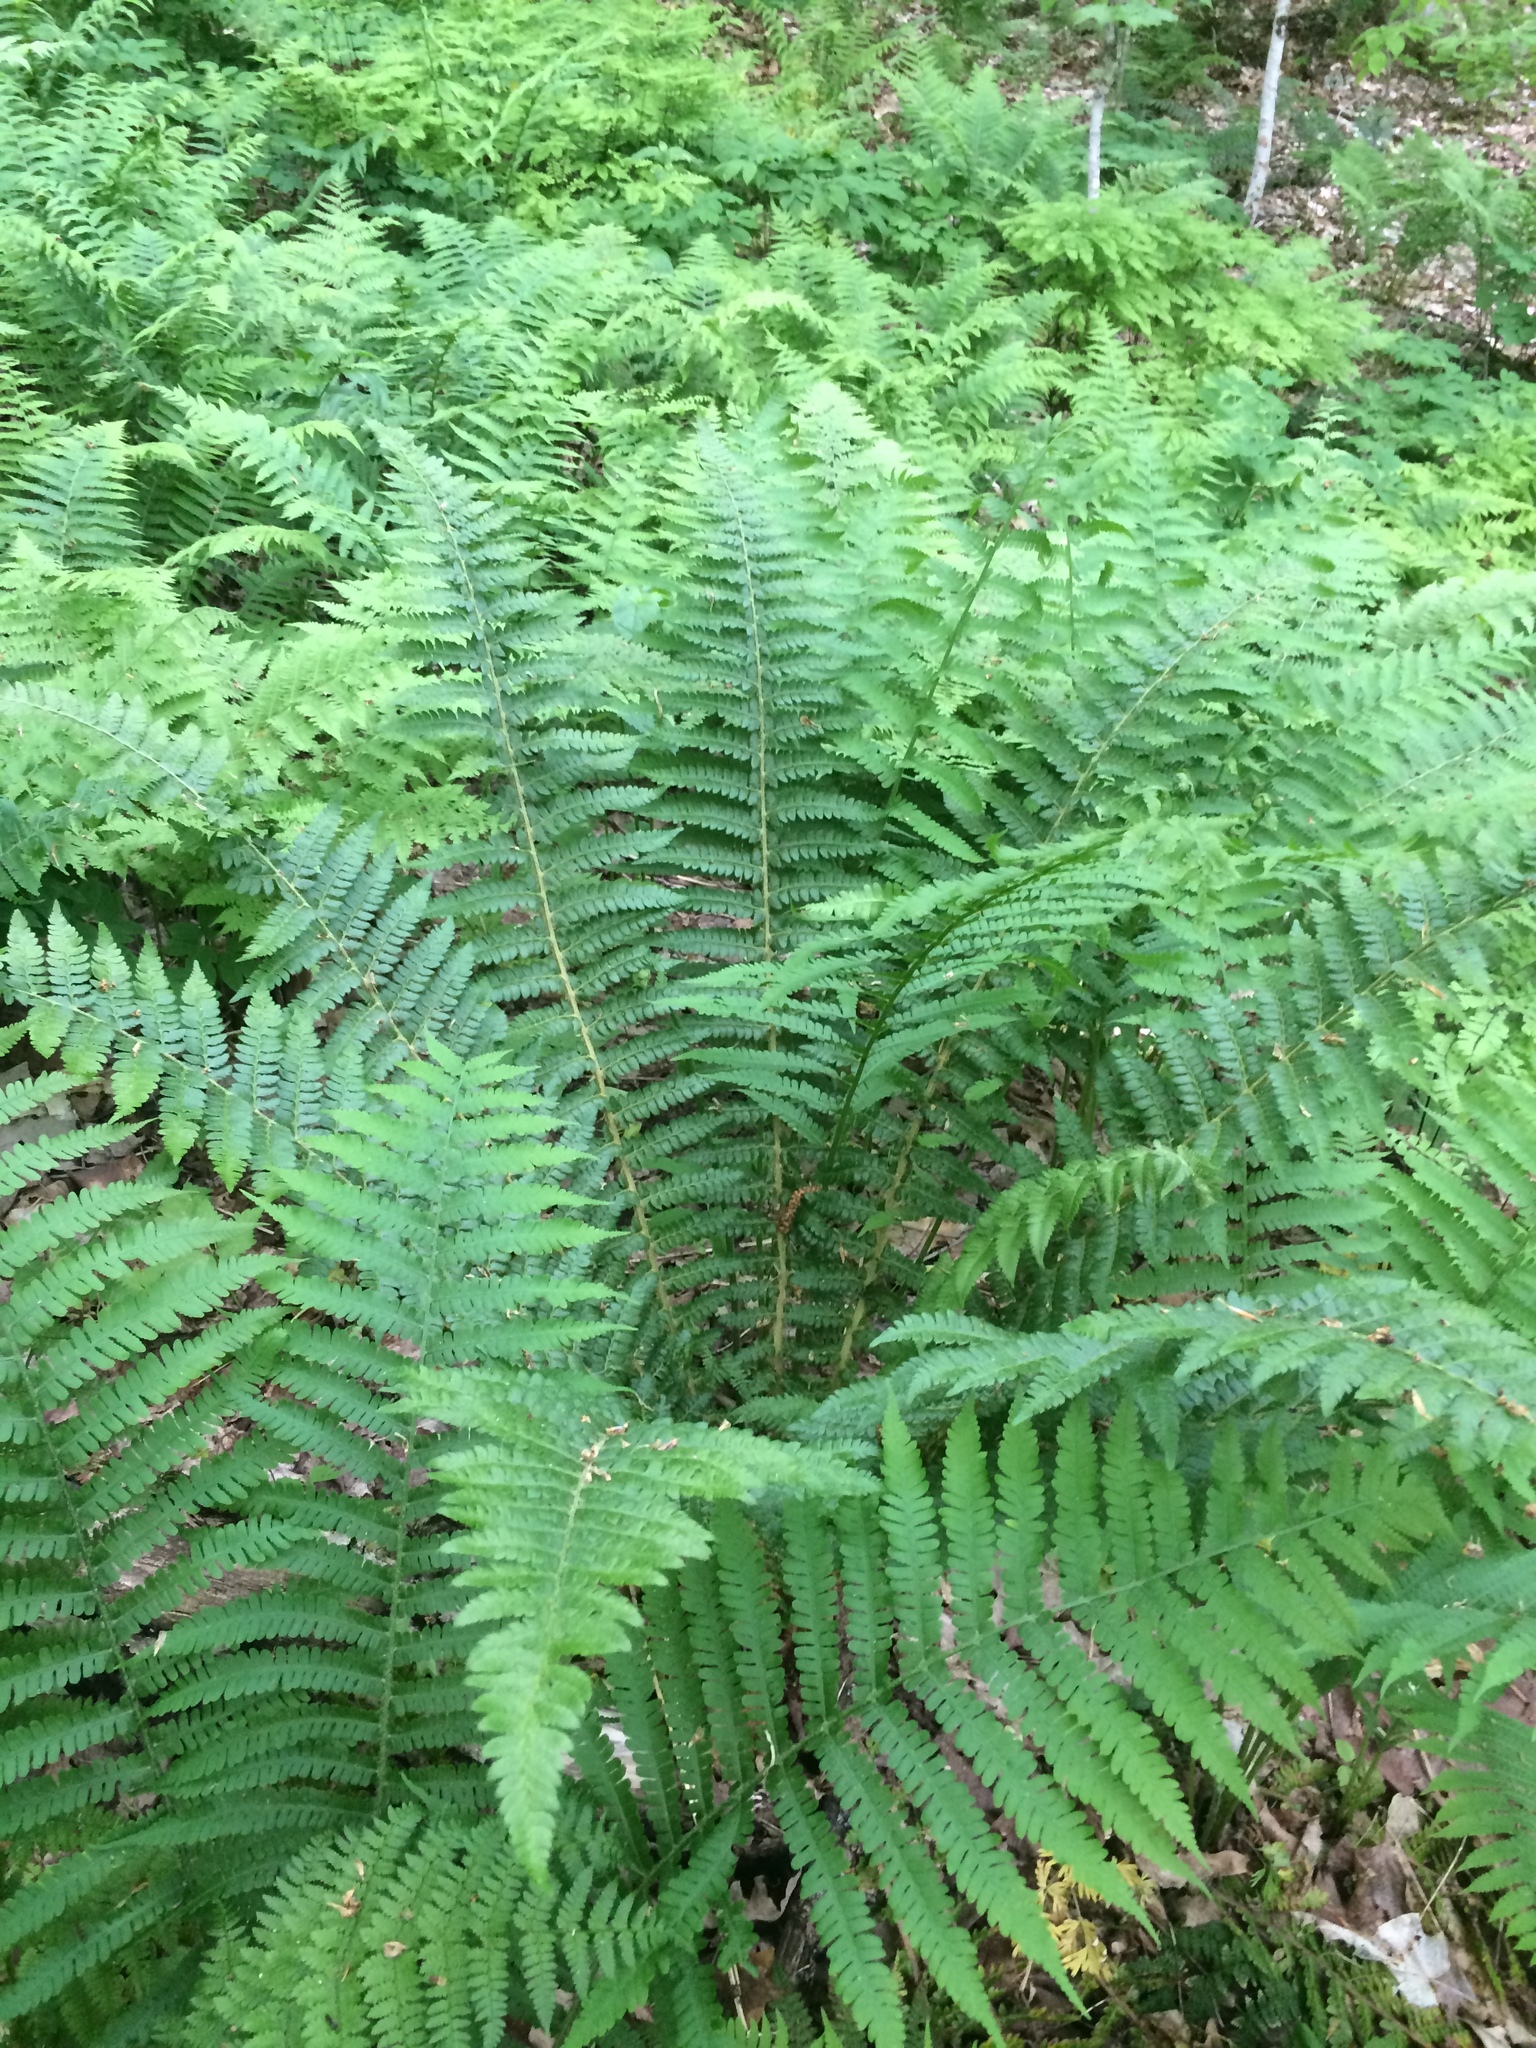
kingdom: Plantae
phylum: Tracheophyta
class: Polypodiopsida
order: Polypodiales
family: Dryopteridaceae
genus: Polystichum
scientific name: Polystichum braunii
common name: Braun's holly fern
